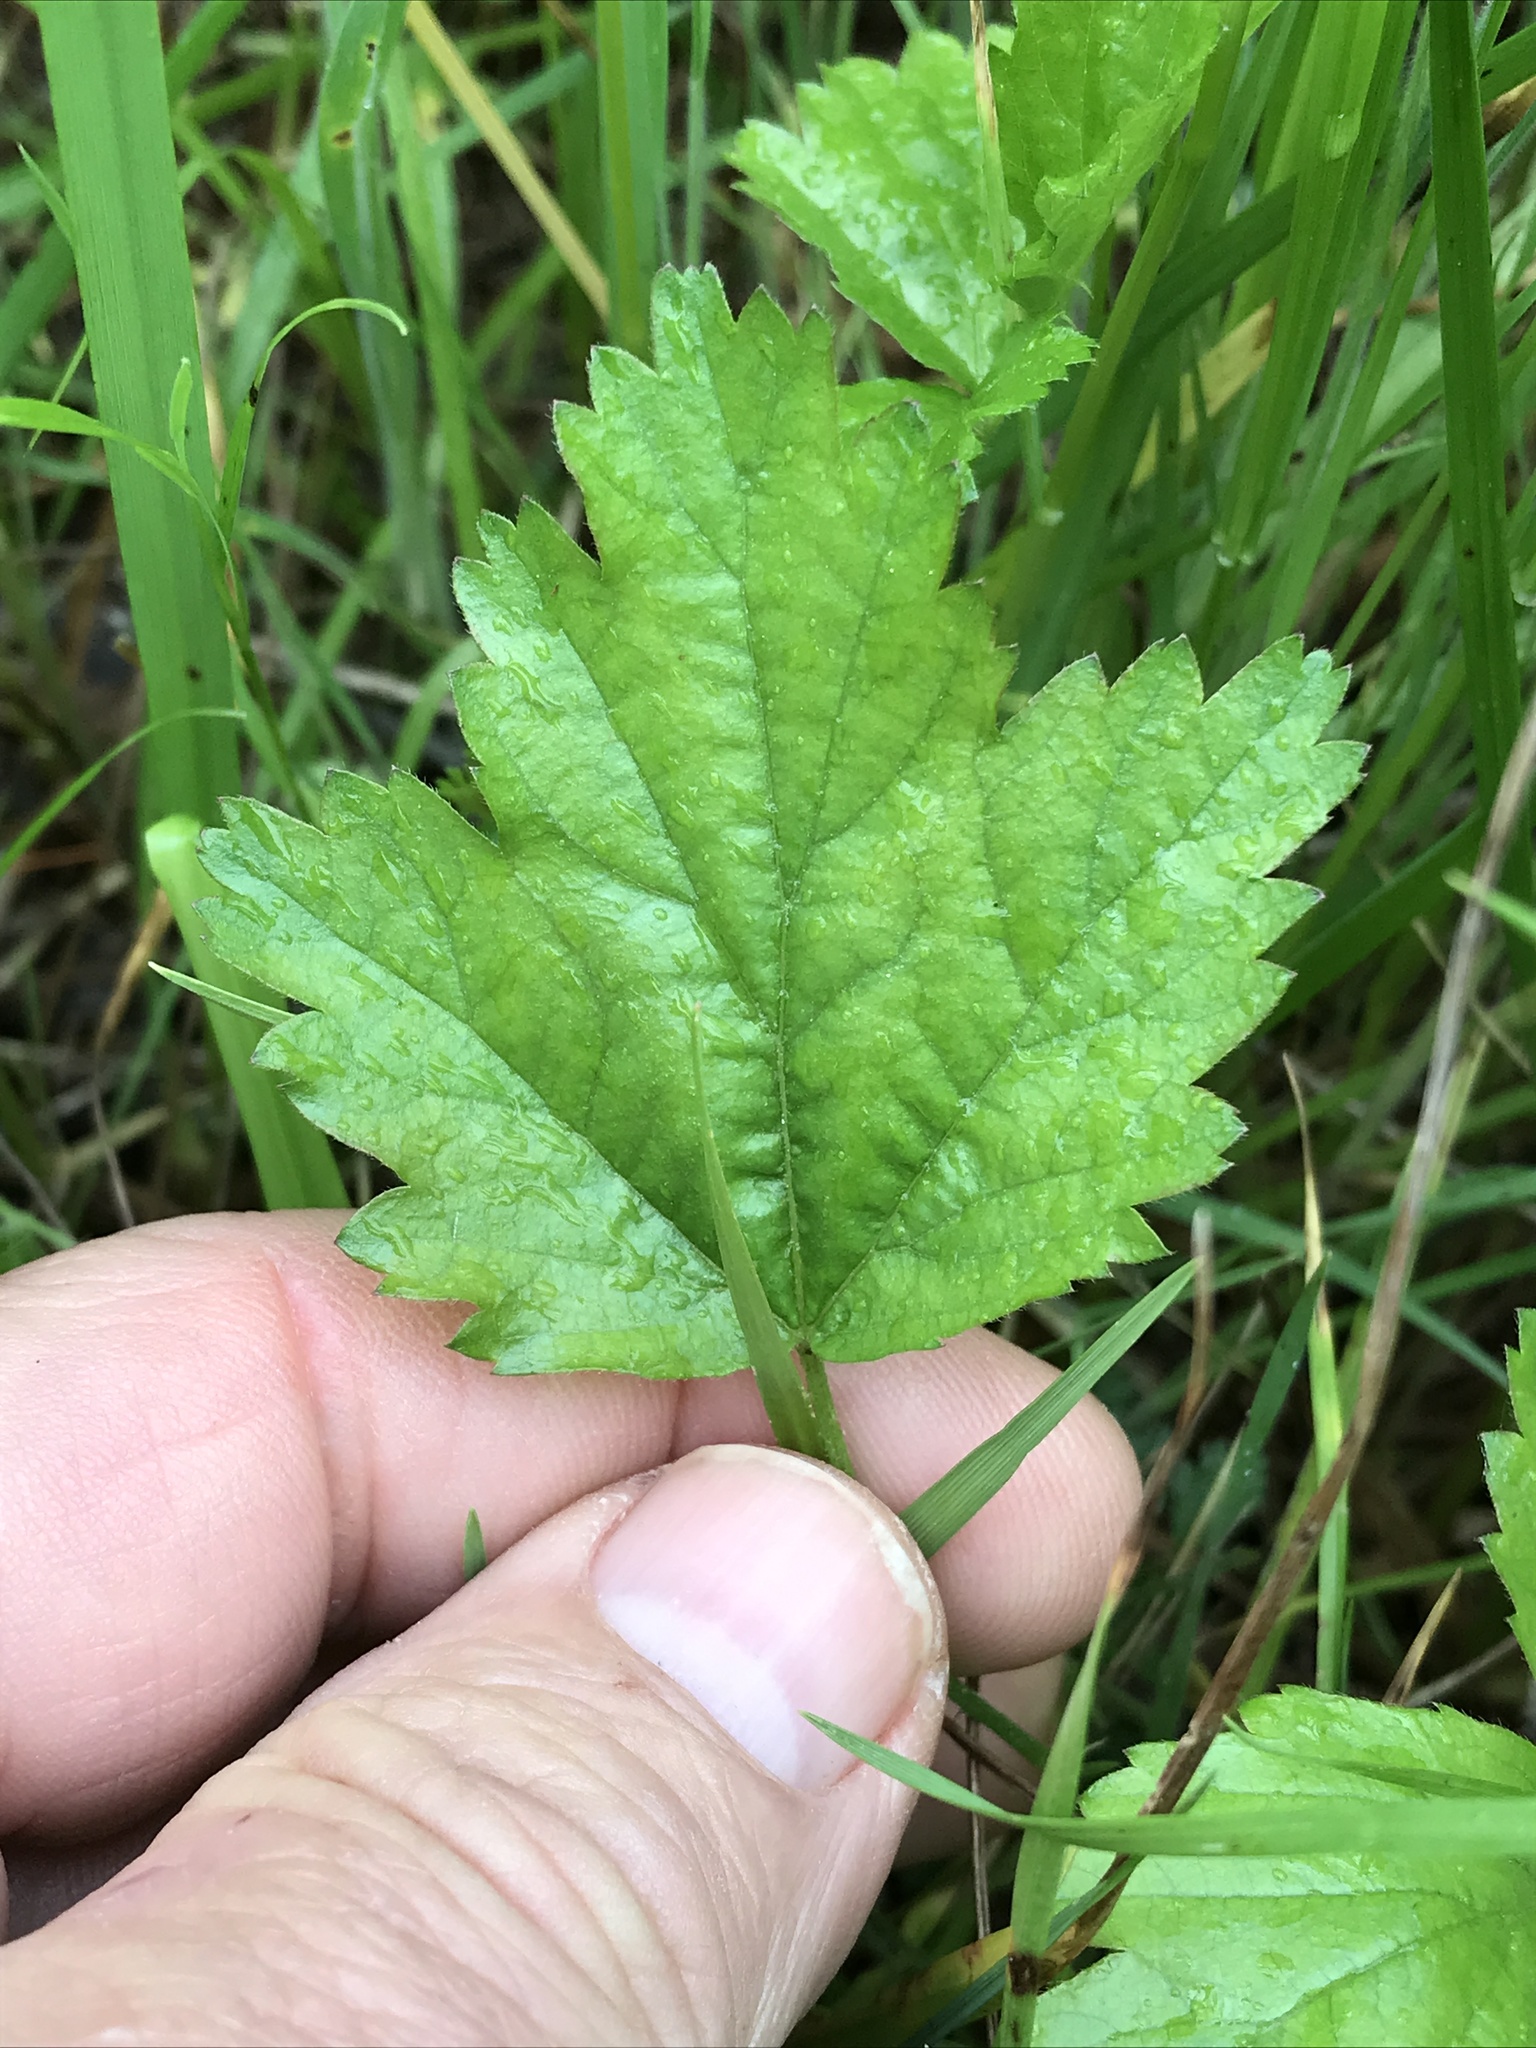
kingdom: Plantae
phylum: Tracheophyta
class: Magnoliopsida
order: Rosales
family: Rosaceae
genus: Rubus
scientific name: Rubus trivialis
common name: Southern dewberry
